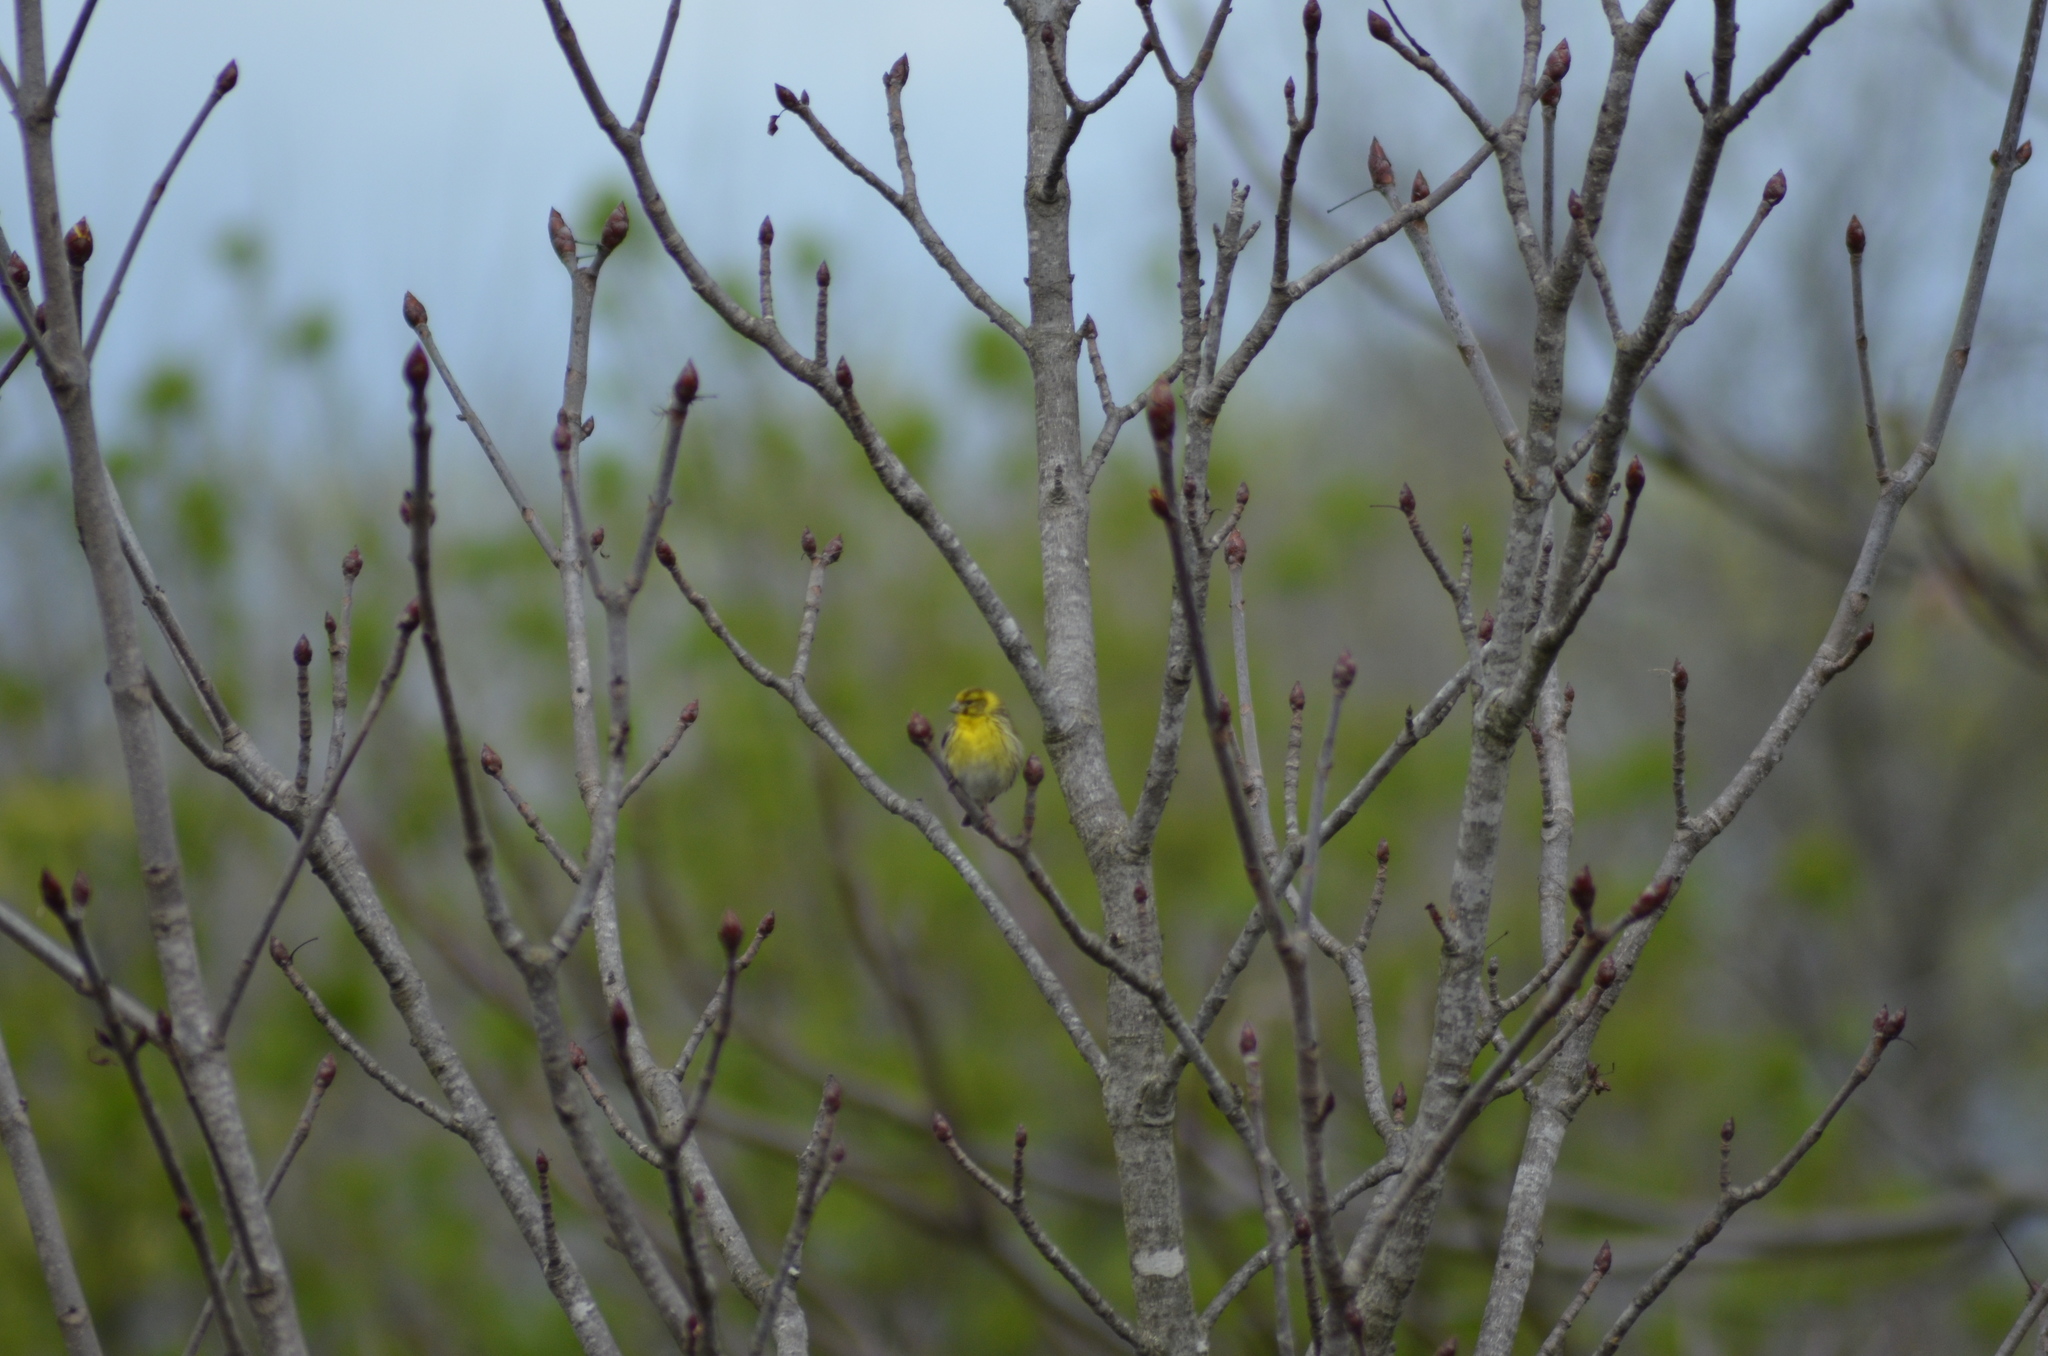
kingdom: Animalia
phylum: Chordata
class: Aves
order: Passeriformes
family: Fringillidae
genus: Serinus
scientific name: Serinus serinus
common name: European serin
